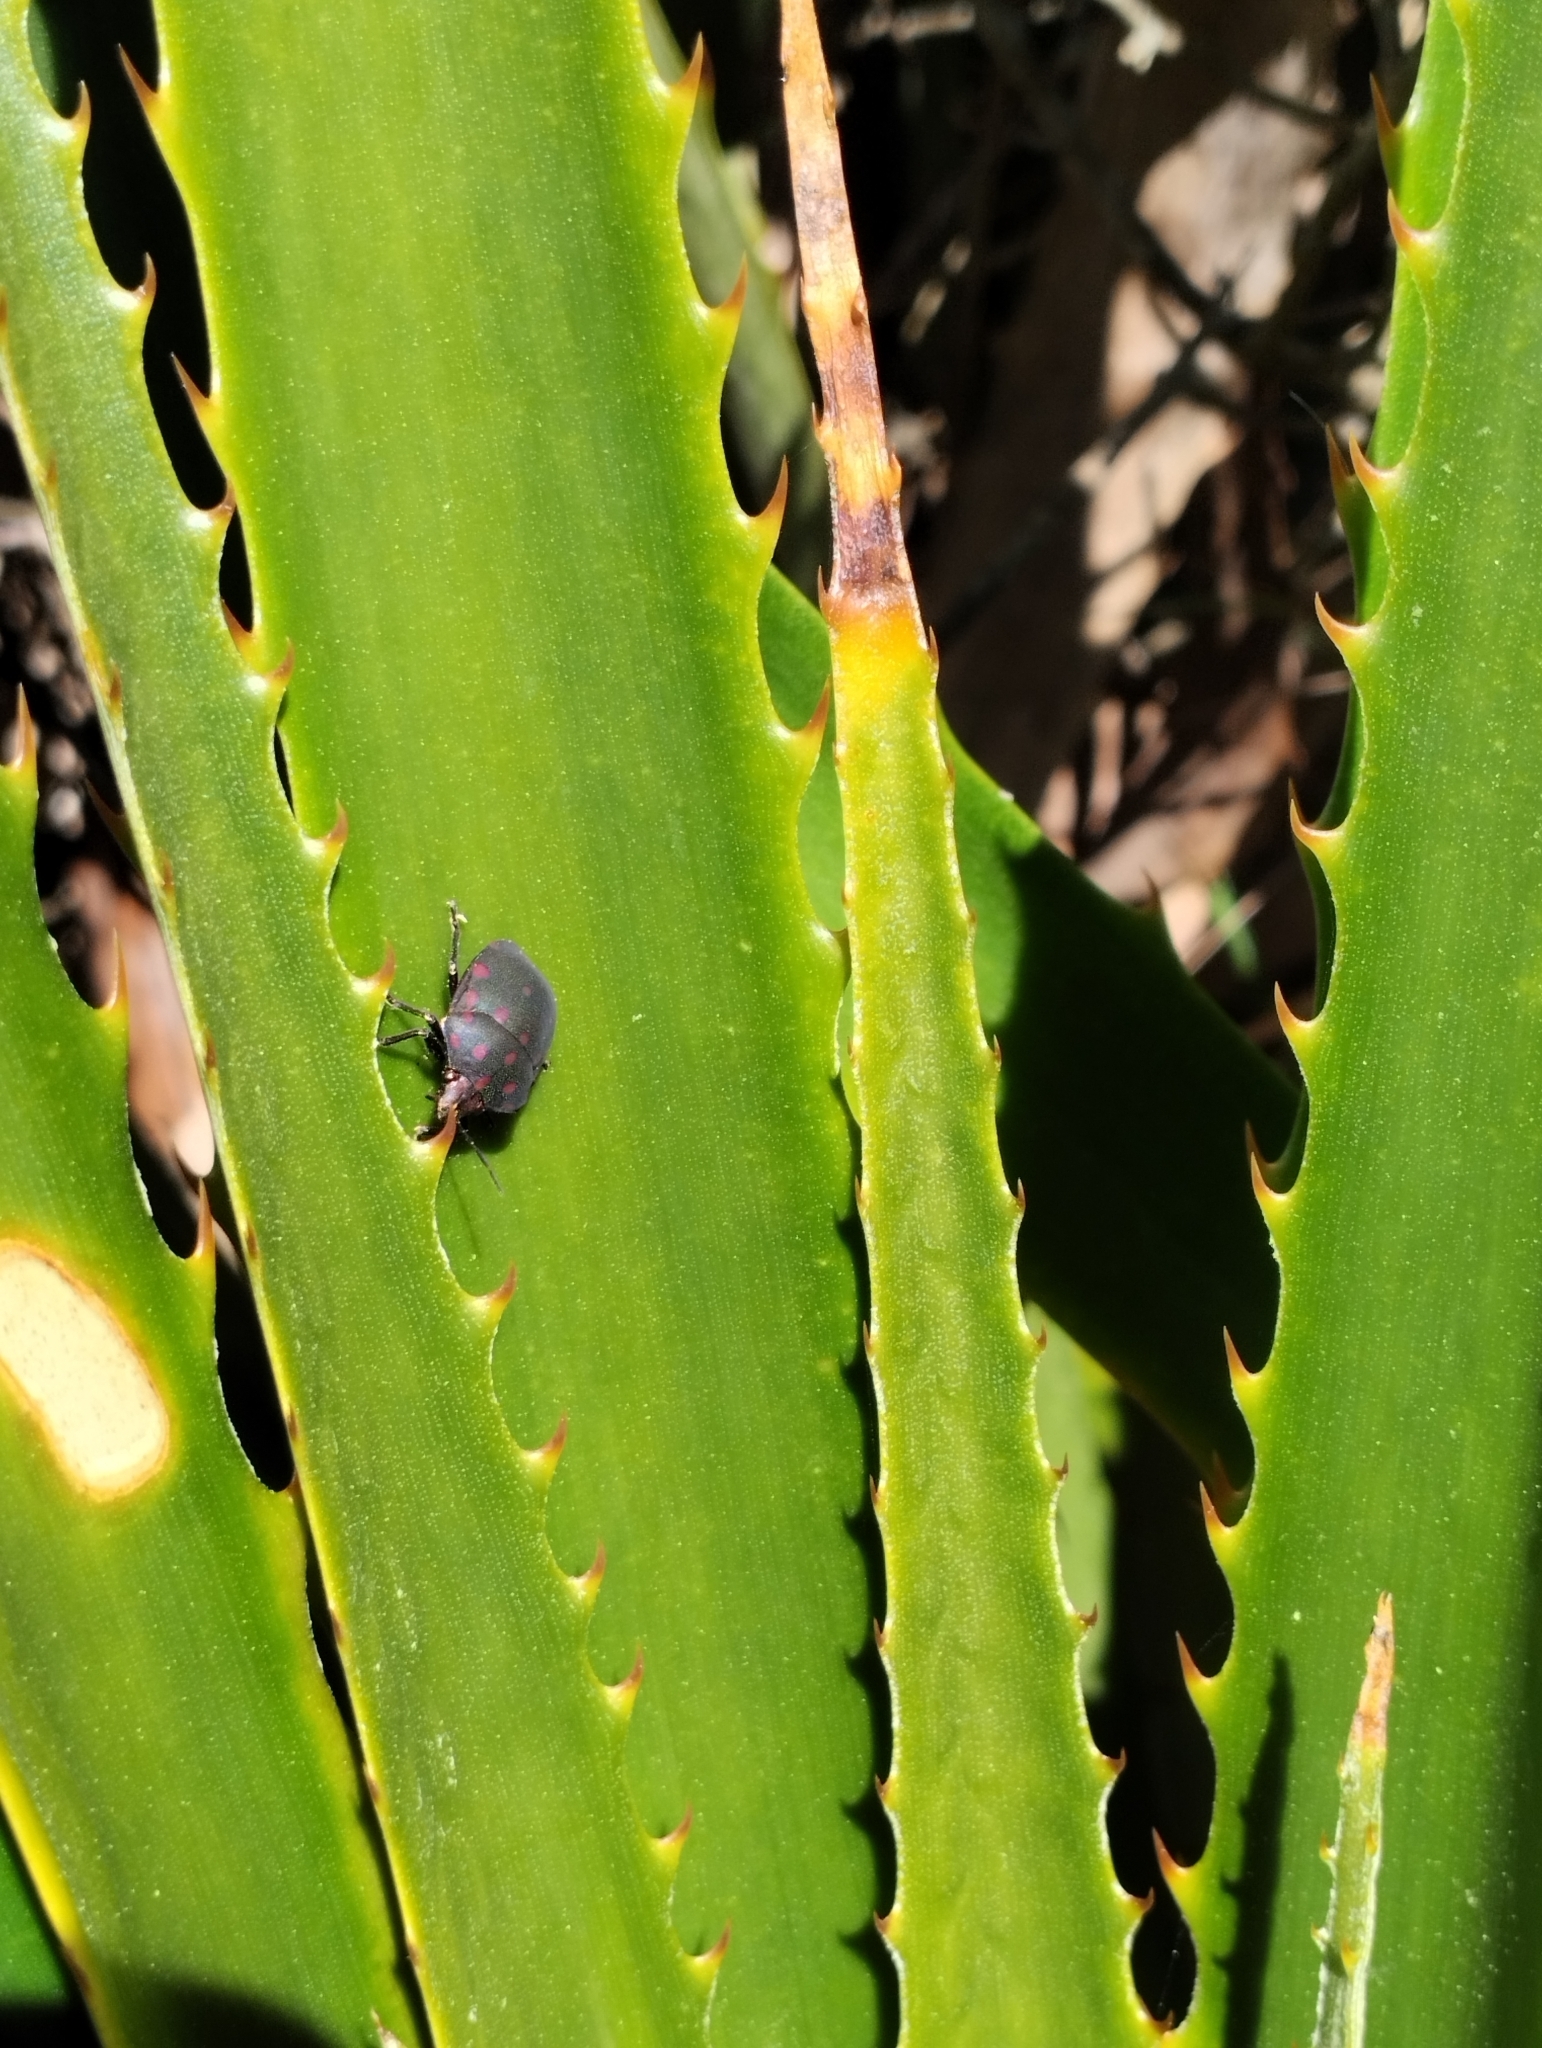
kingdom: Animalia
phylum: Arthropoda
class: Insecta
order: Hemiptera
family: Scutelleridae
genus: Pachycoris
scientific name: Pachycoris torridus
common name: Torrid jewel bug
